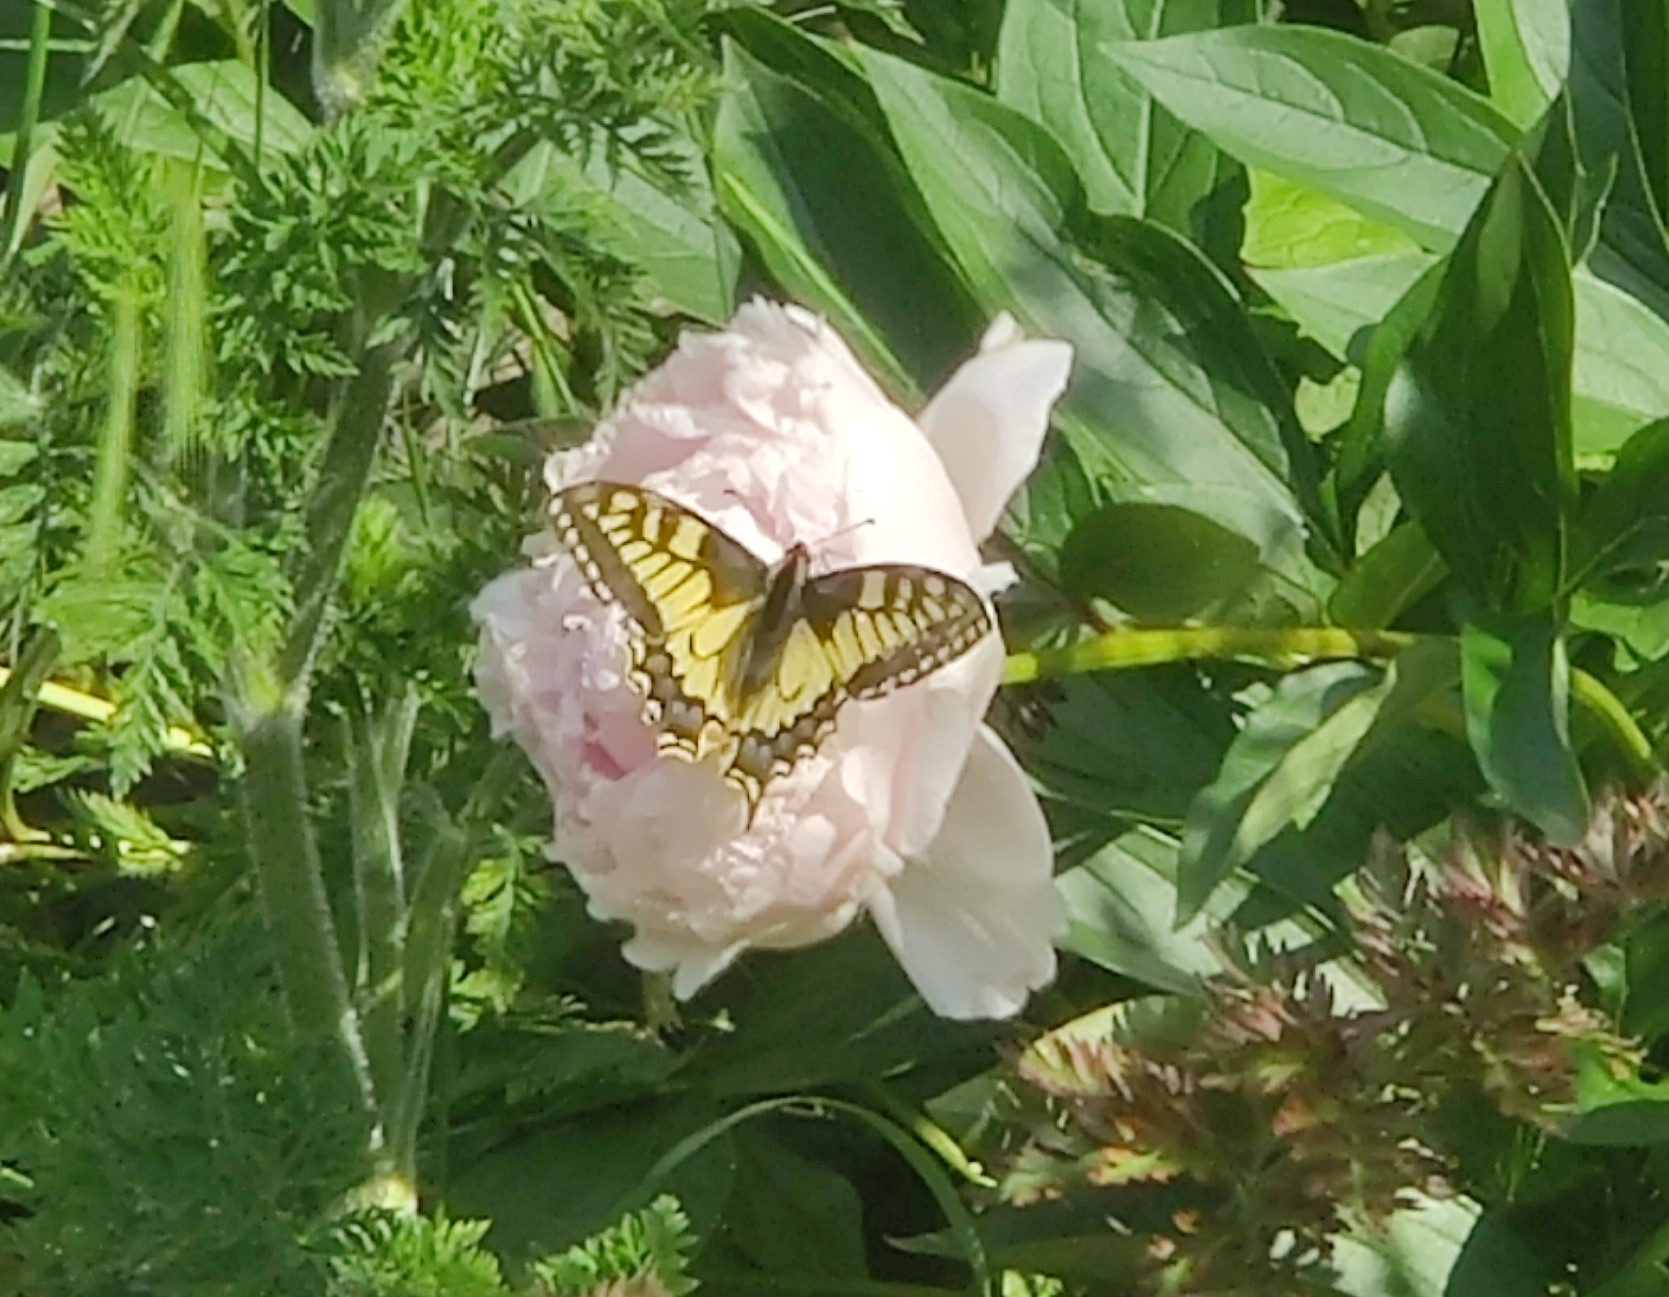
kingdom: Animalia
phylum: Arthropoda
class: Insecta
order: Lepidoptera
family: Papilionidae
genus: Papilio
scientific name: Papilio machaon
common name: Swallowtail
